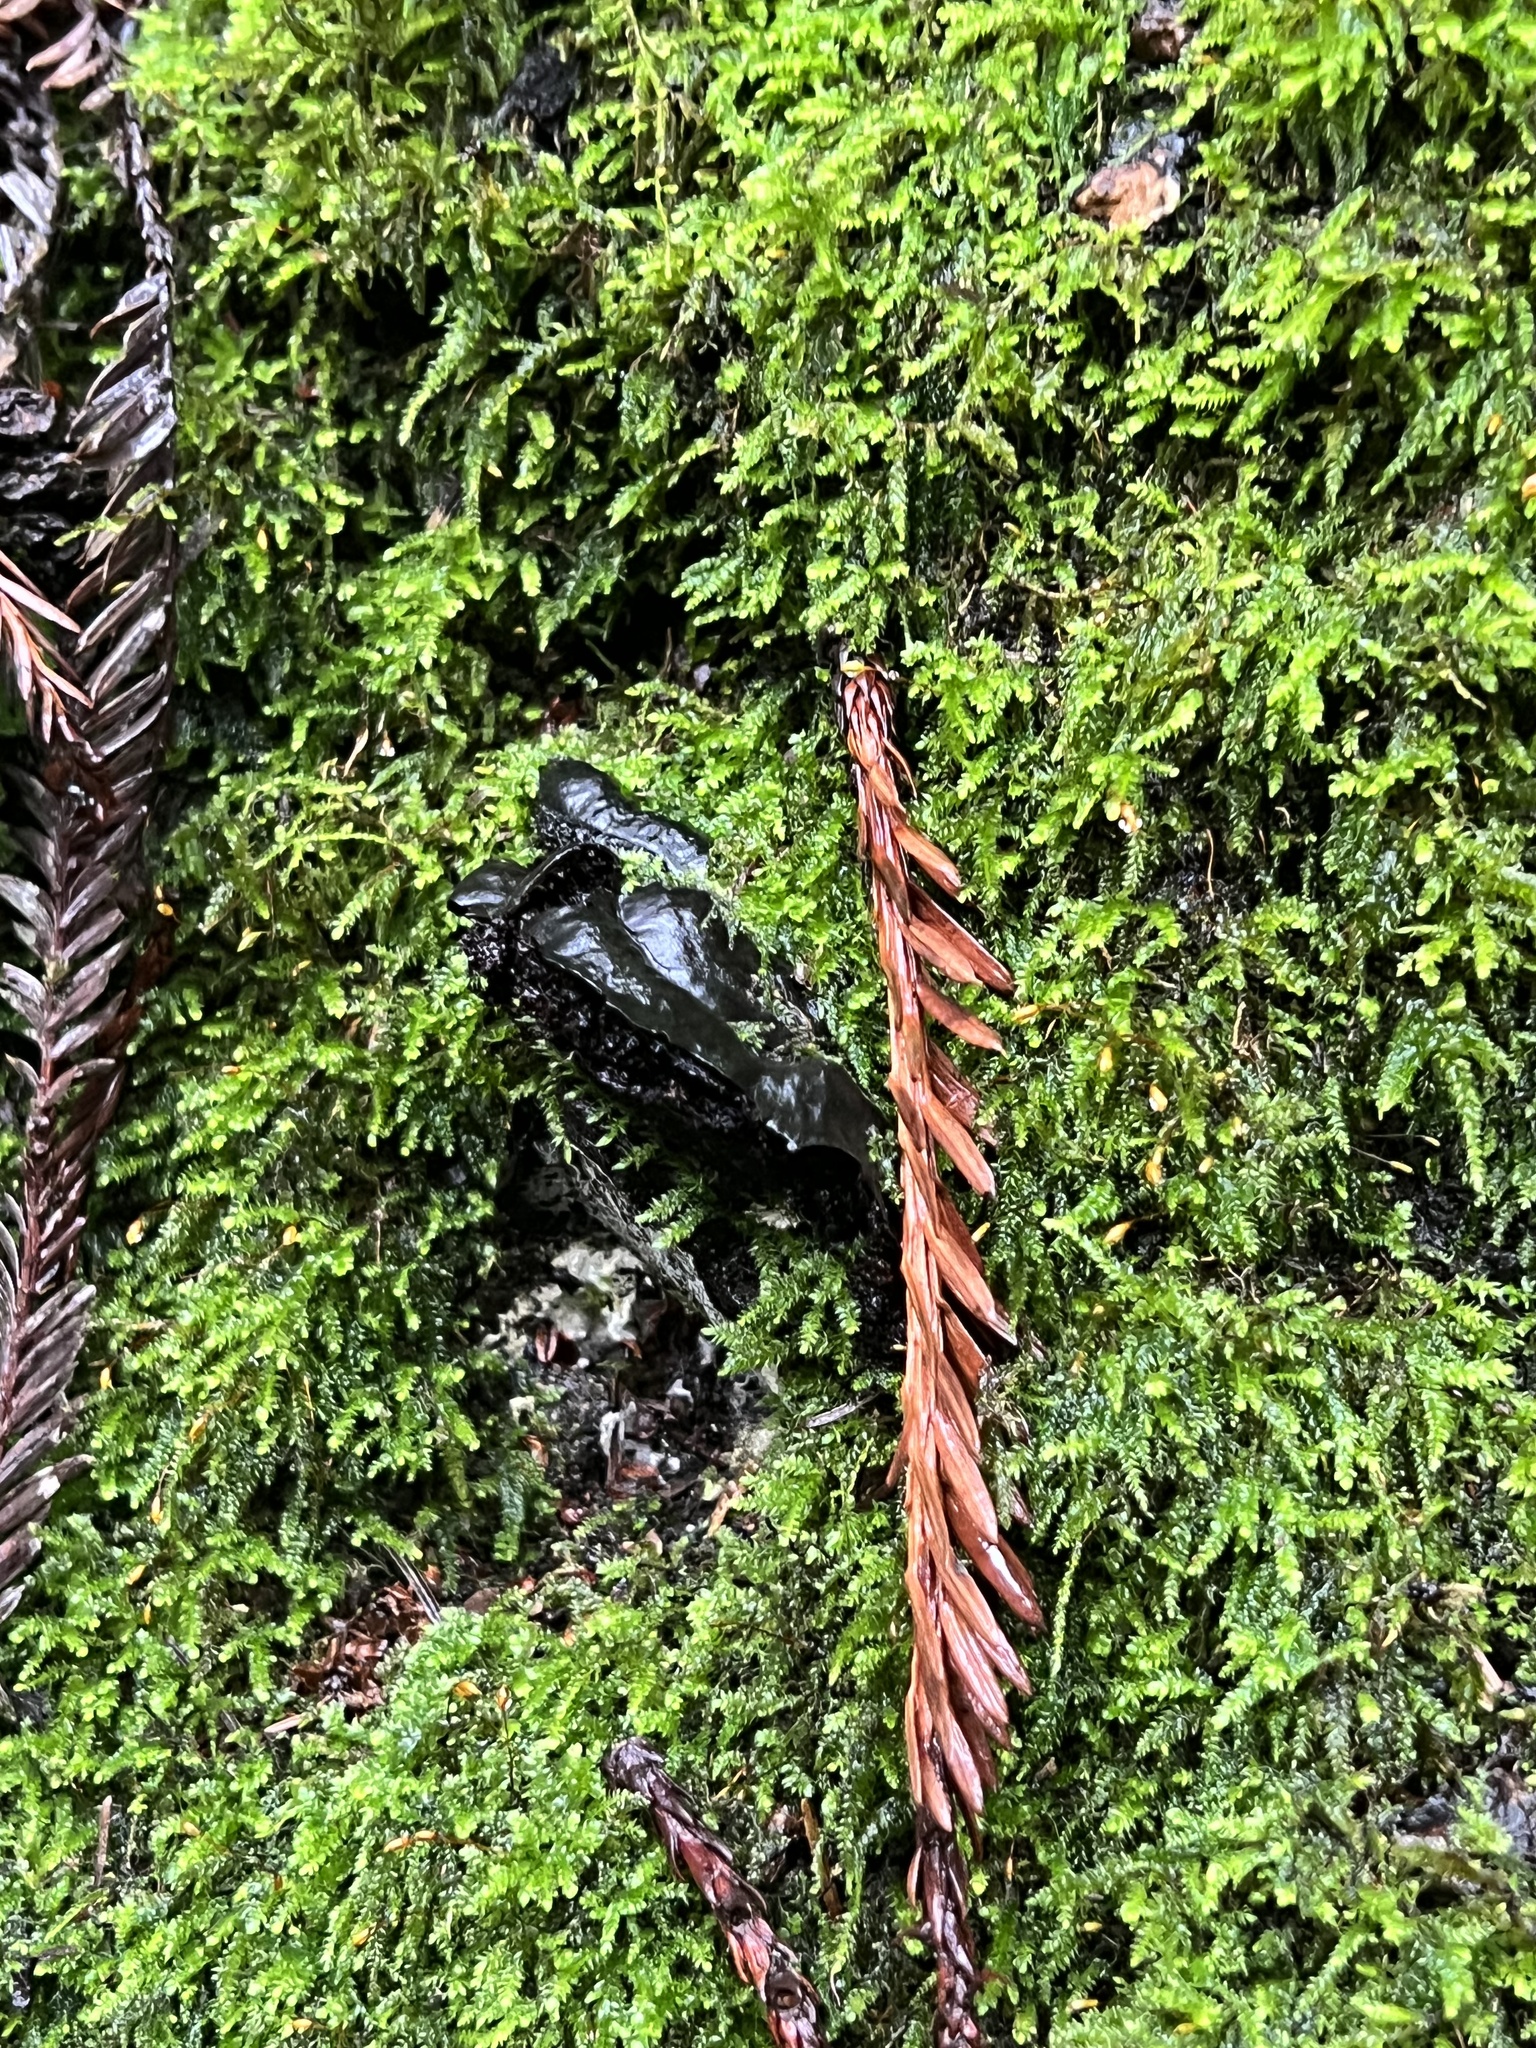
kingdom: Fungi
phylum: Ascomycota
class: Leotiomycetes
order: Phacidiales
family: Phacidiaceae
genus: Bulgaria
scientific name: Bulgaria inquinans
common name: Black bulgar
